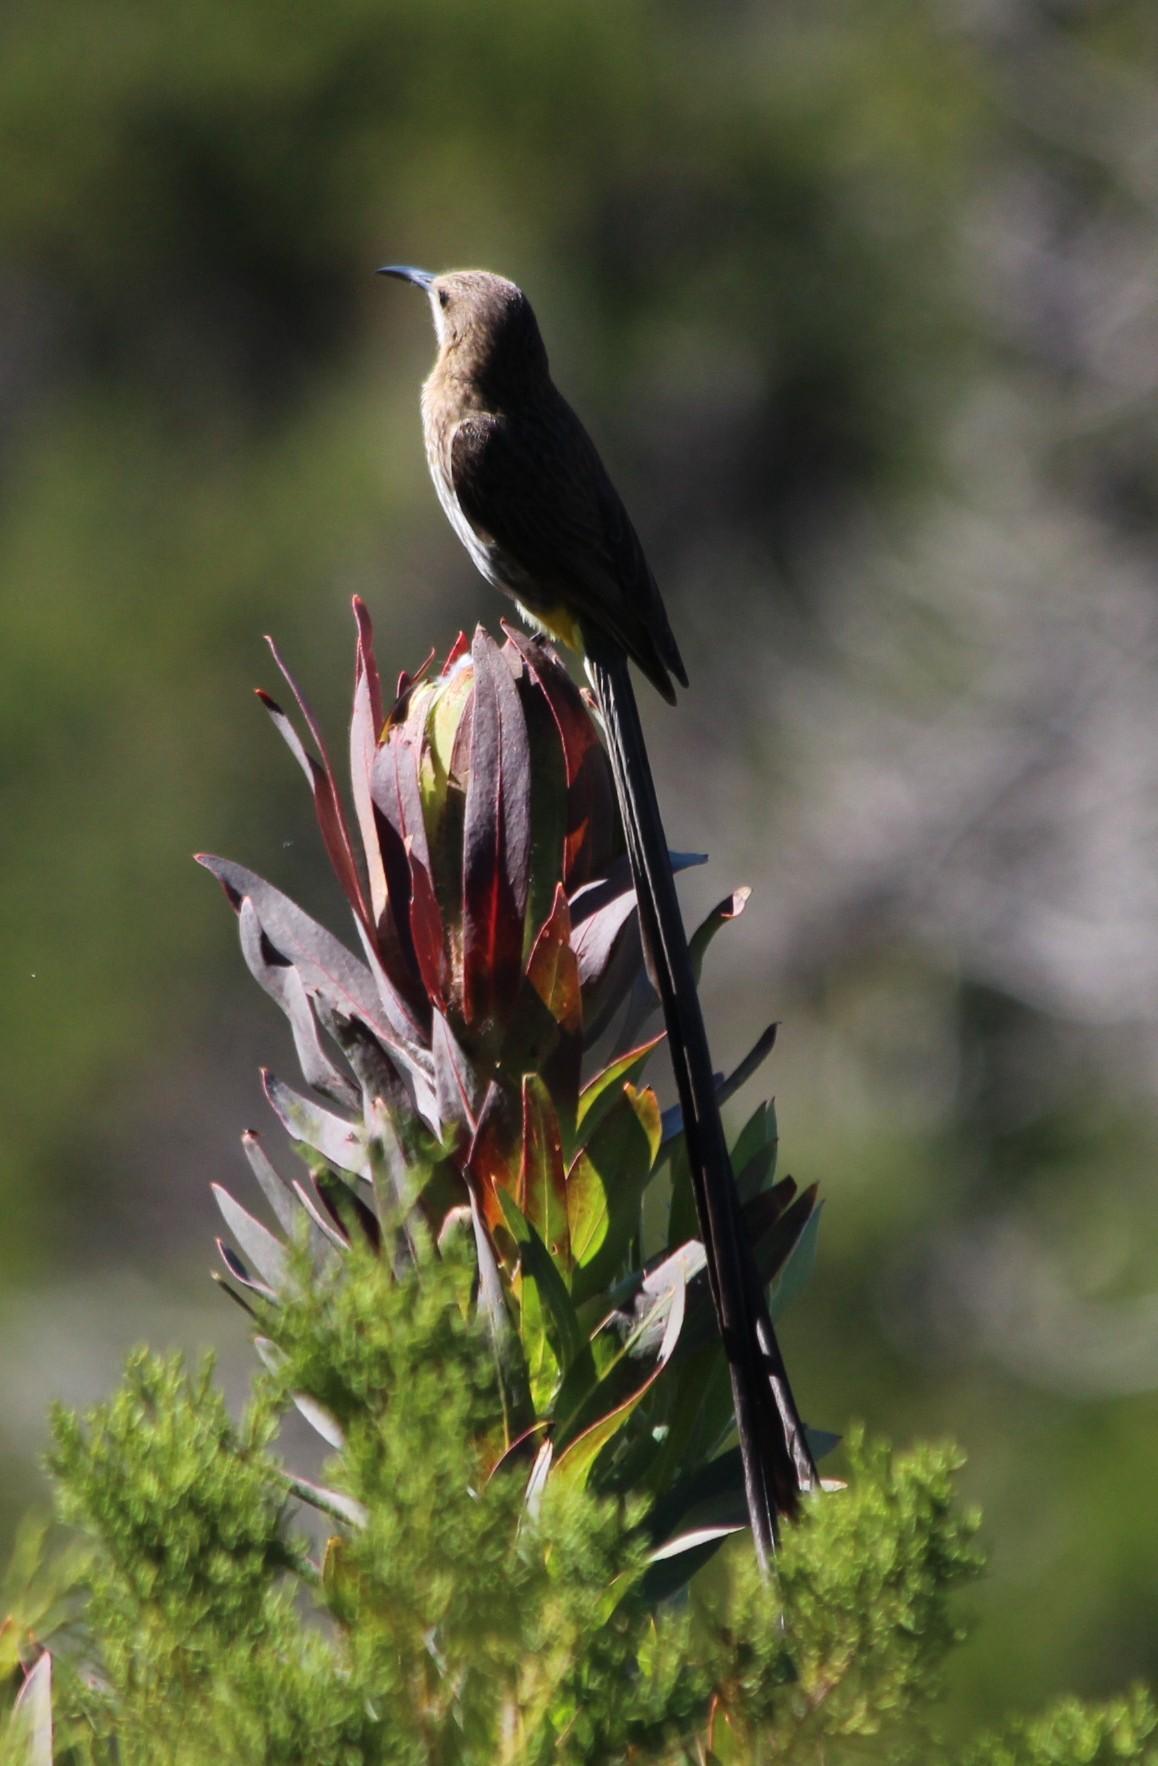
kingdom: Animalia
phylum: Chordata
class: Aves
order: Passeriformes
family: Promeropidae
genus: Promerops
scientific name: Promerops cafer
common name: Cape sugarbird
